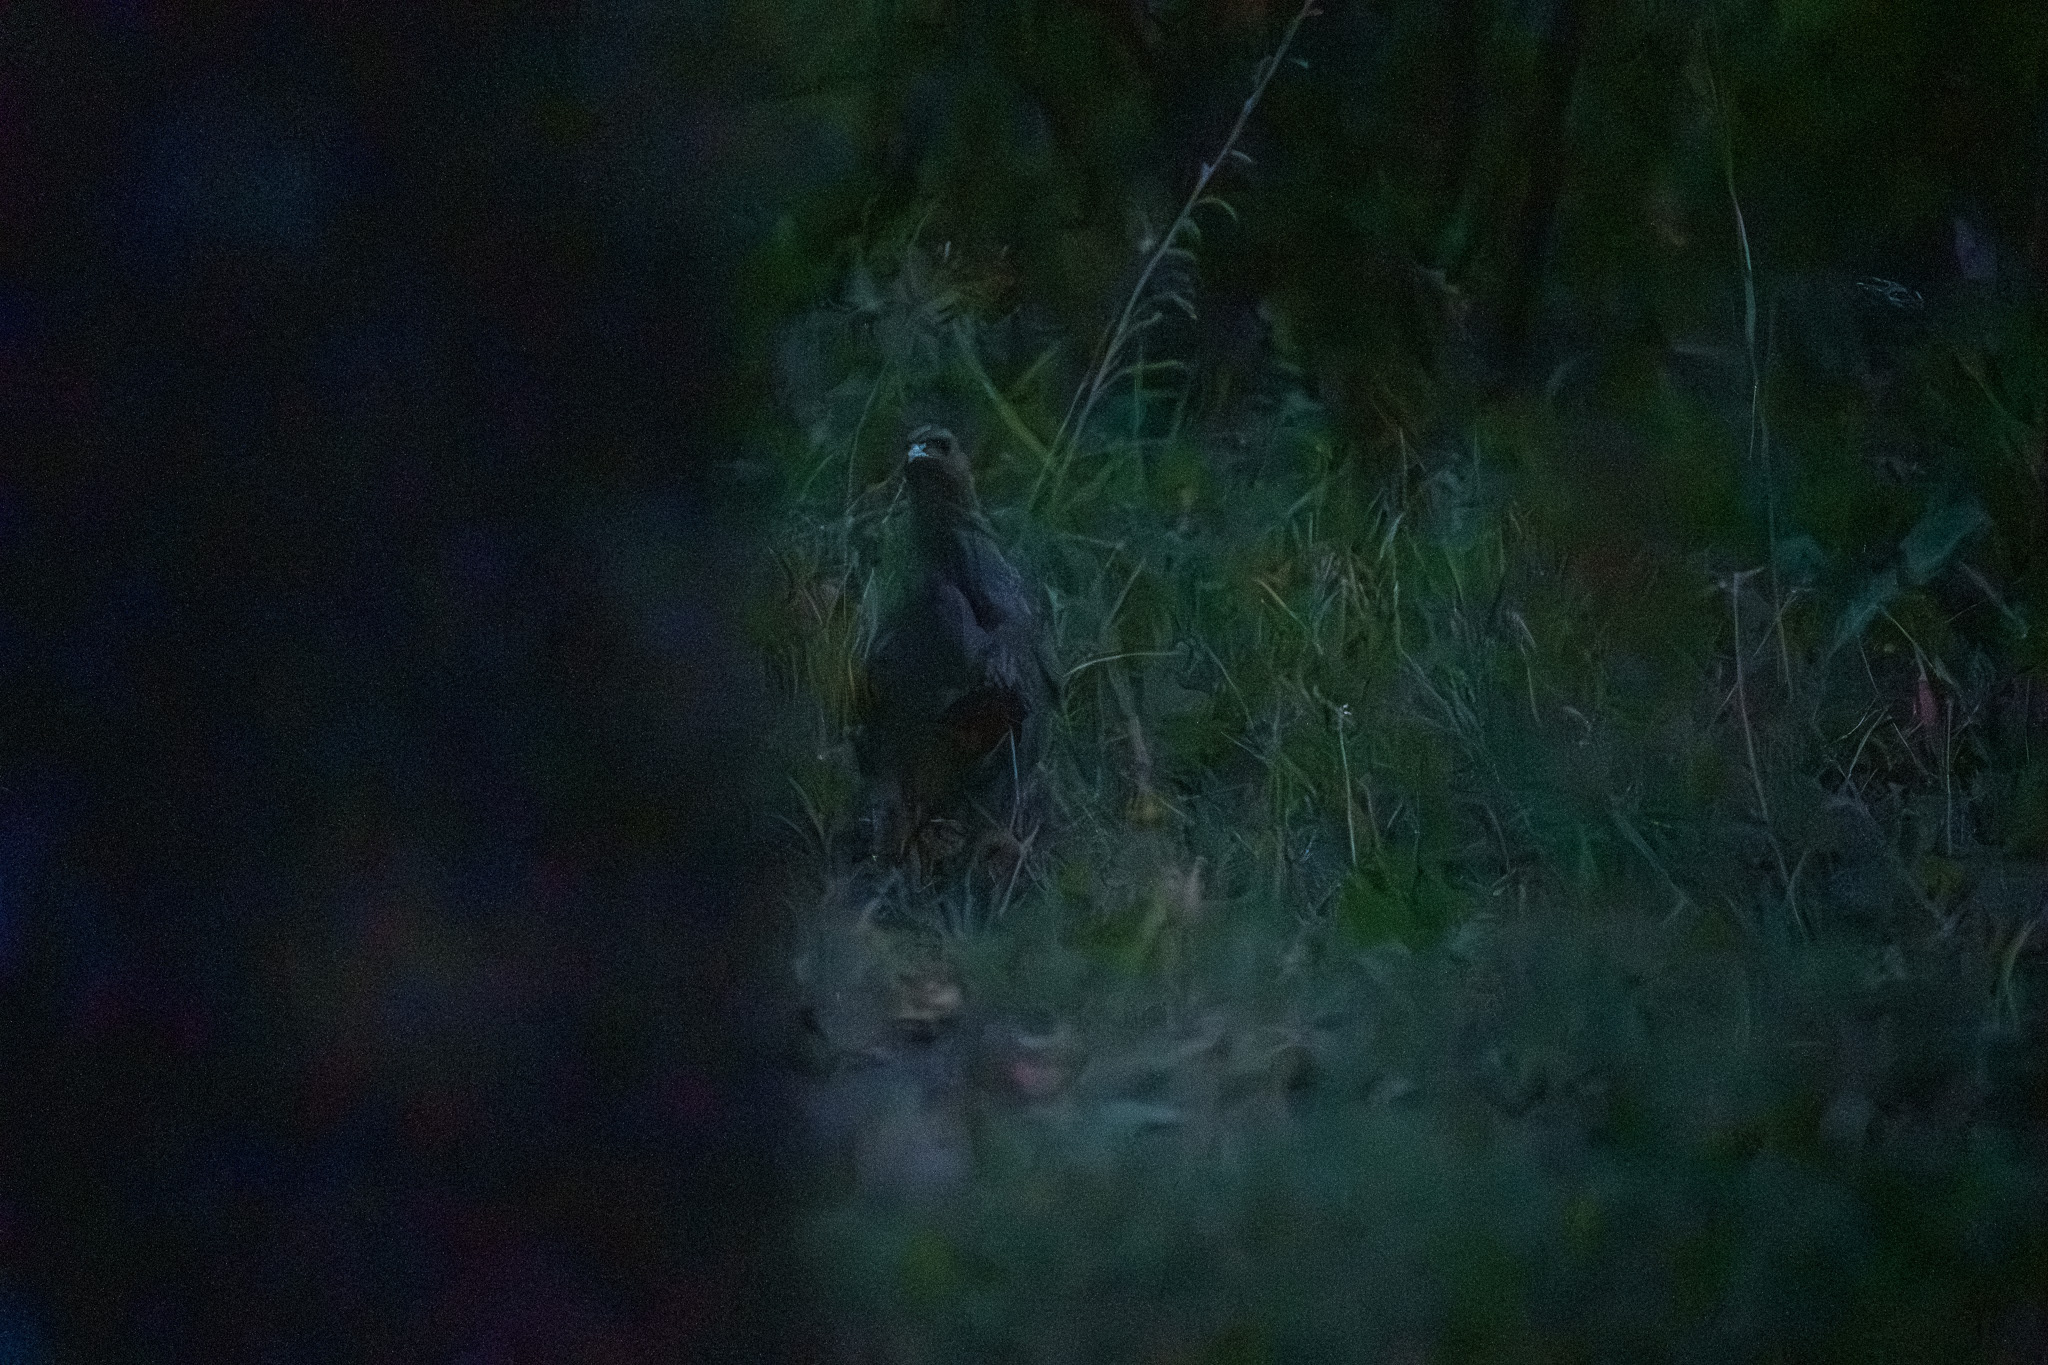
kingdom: Animalia
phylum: Chordata
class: Aves
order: Galliformes
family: Phasianidae
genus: Perdix
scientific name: Perdix perdix
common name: Grey partridge
